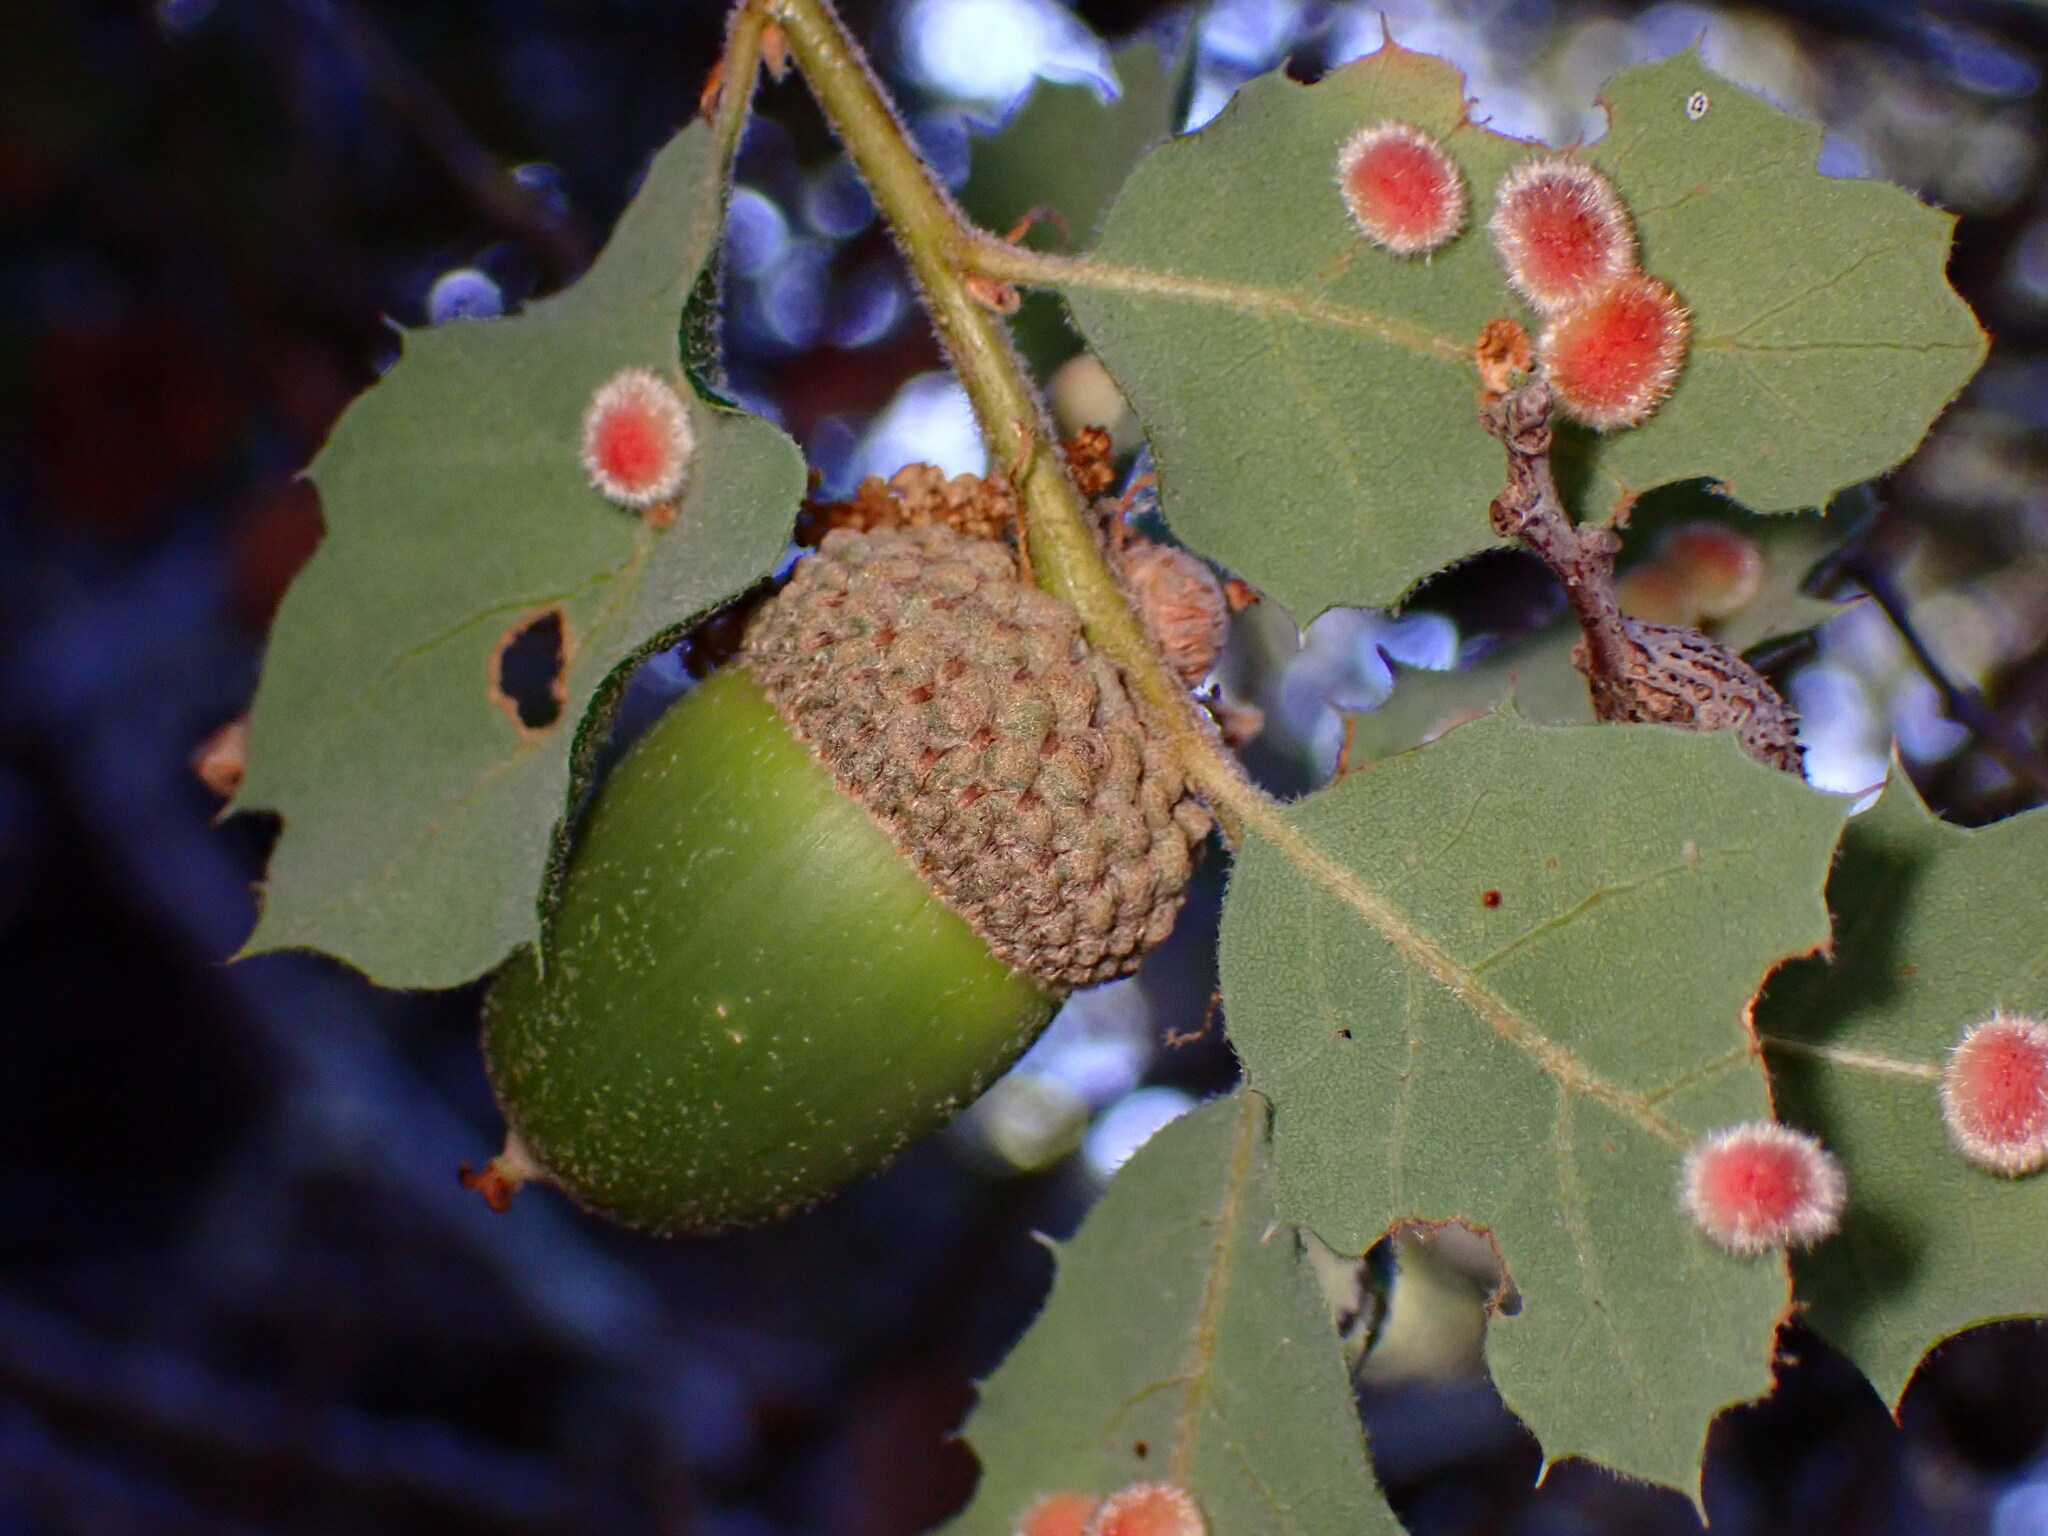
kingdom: Animalia
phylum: Arthropoda
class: Insecta
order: Hymenoptera
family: Cynipidae
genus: Atrusca
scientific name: Atrusca
